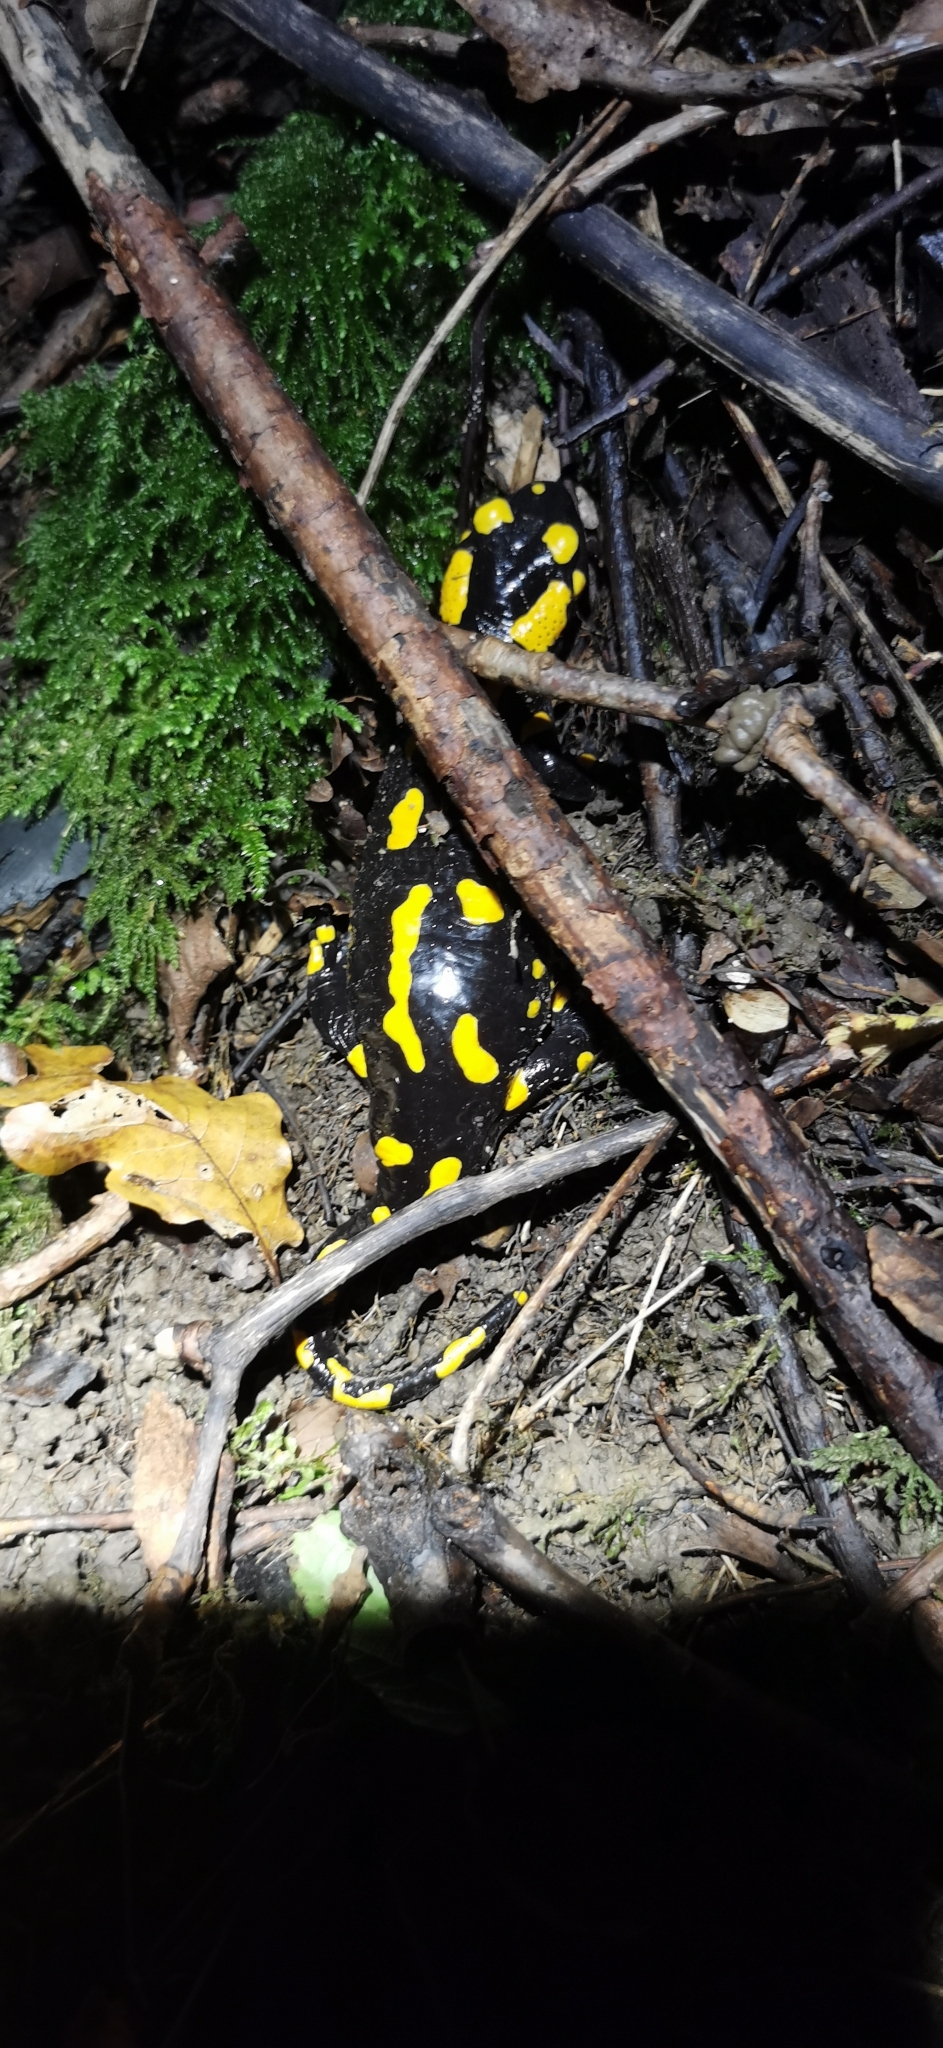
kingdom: Animalia
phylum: Chordata
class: Amphibia
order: Caudata
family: Salamandridae
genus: Salamandra
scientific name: Salamandra salamandra
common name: Fire salamander
